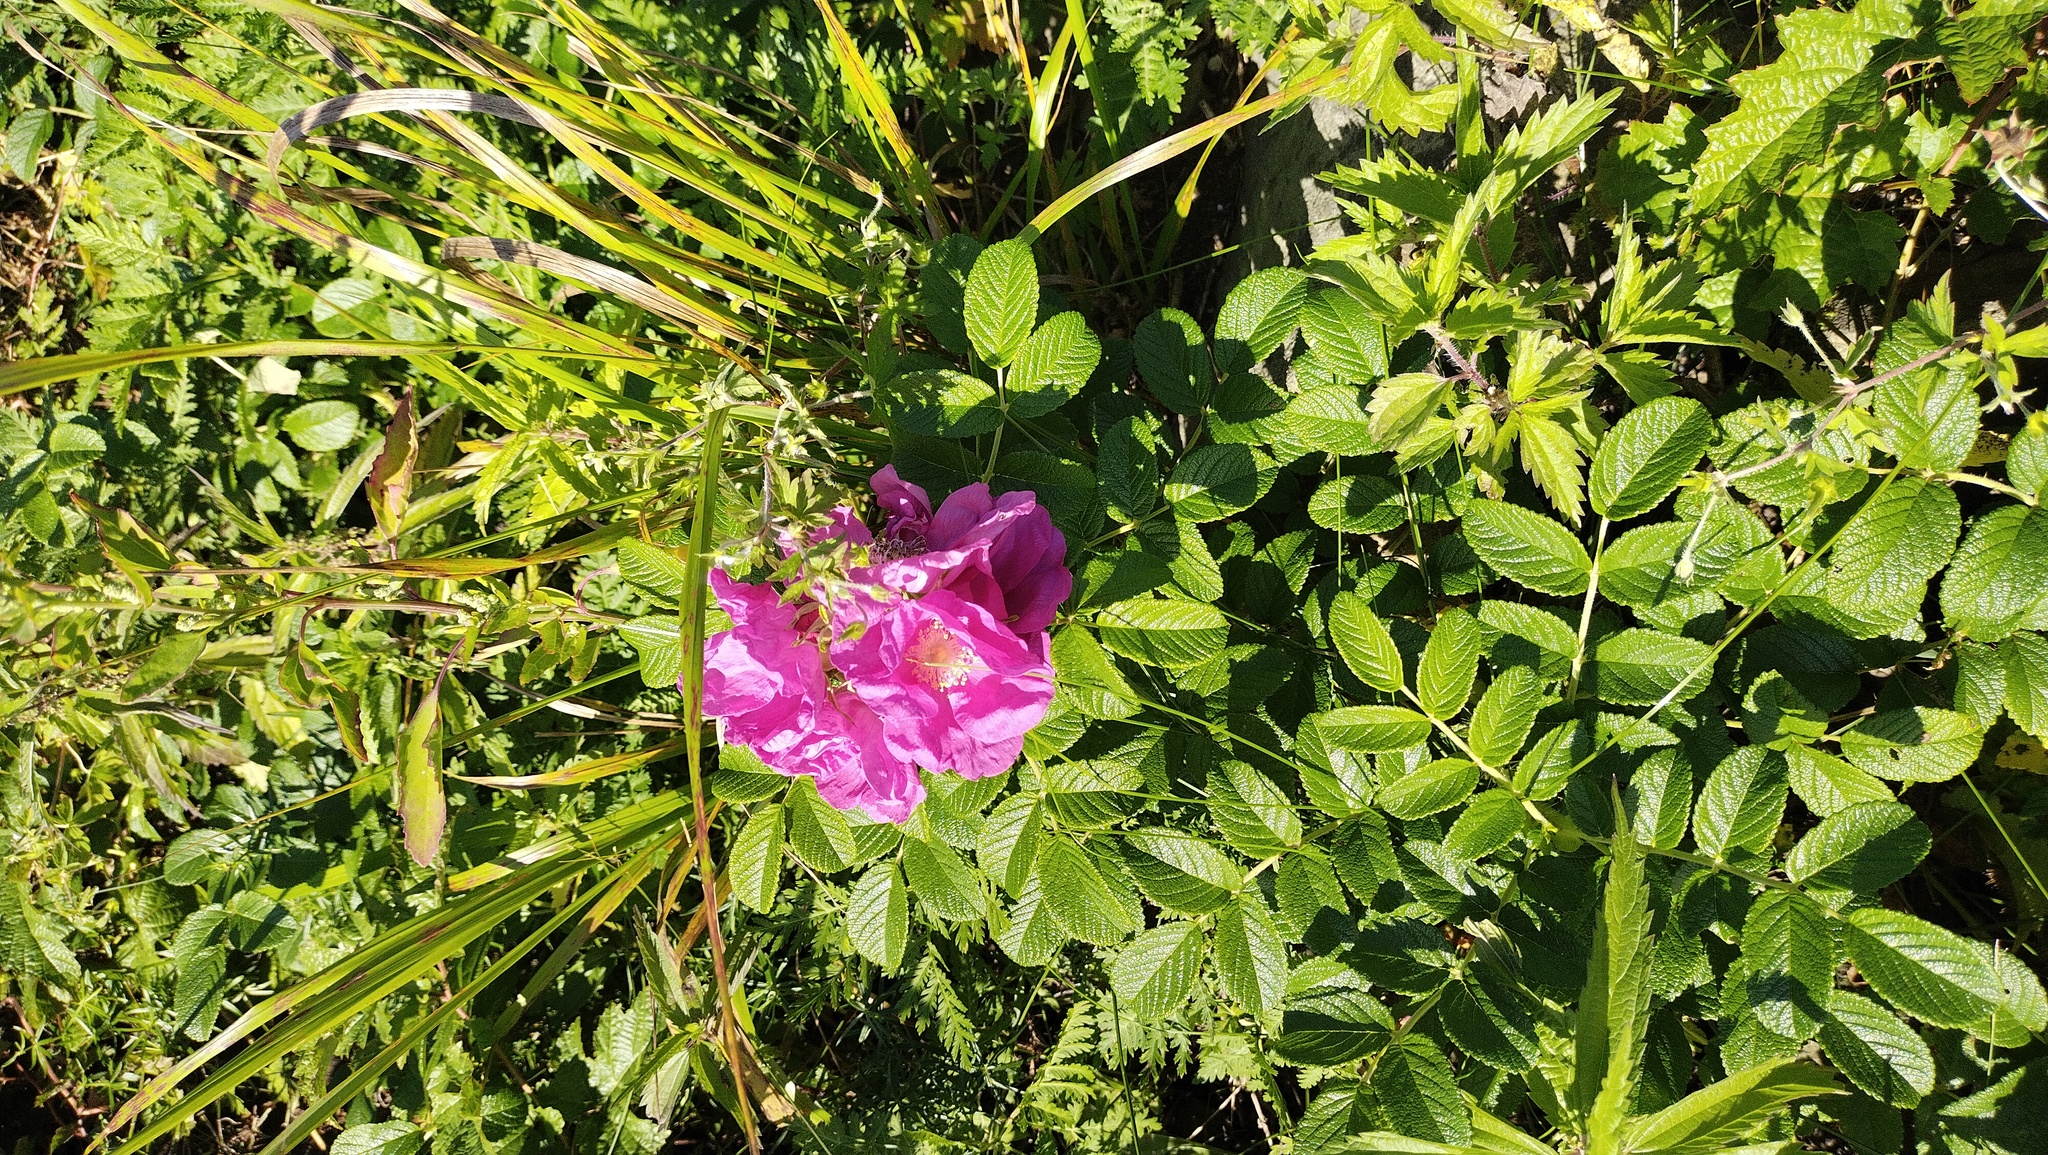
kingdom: Plantae
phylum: Tracheophyta
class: Magnoliopsida
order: Rosales
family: Rosaceae
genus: Rosa
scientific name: Rosa rugosa
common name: Japanese rose
